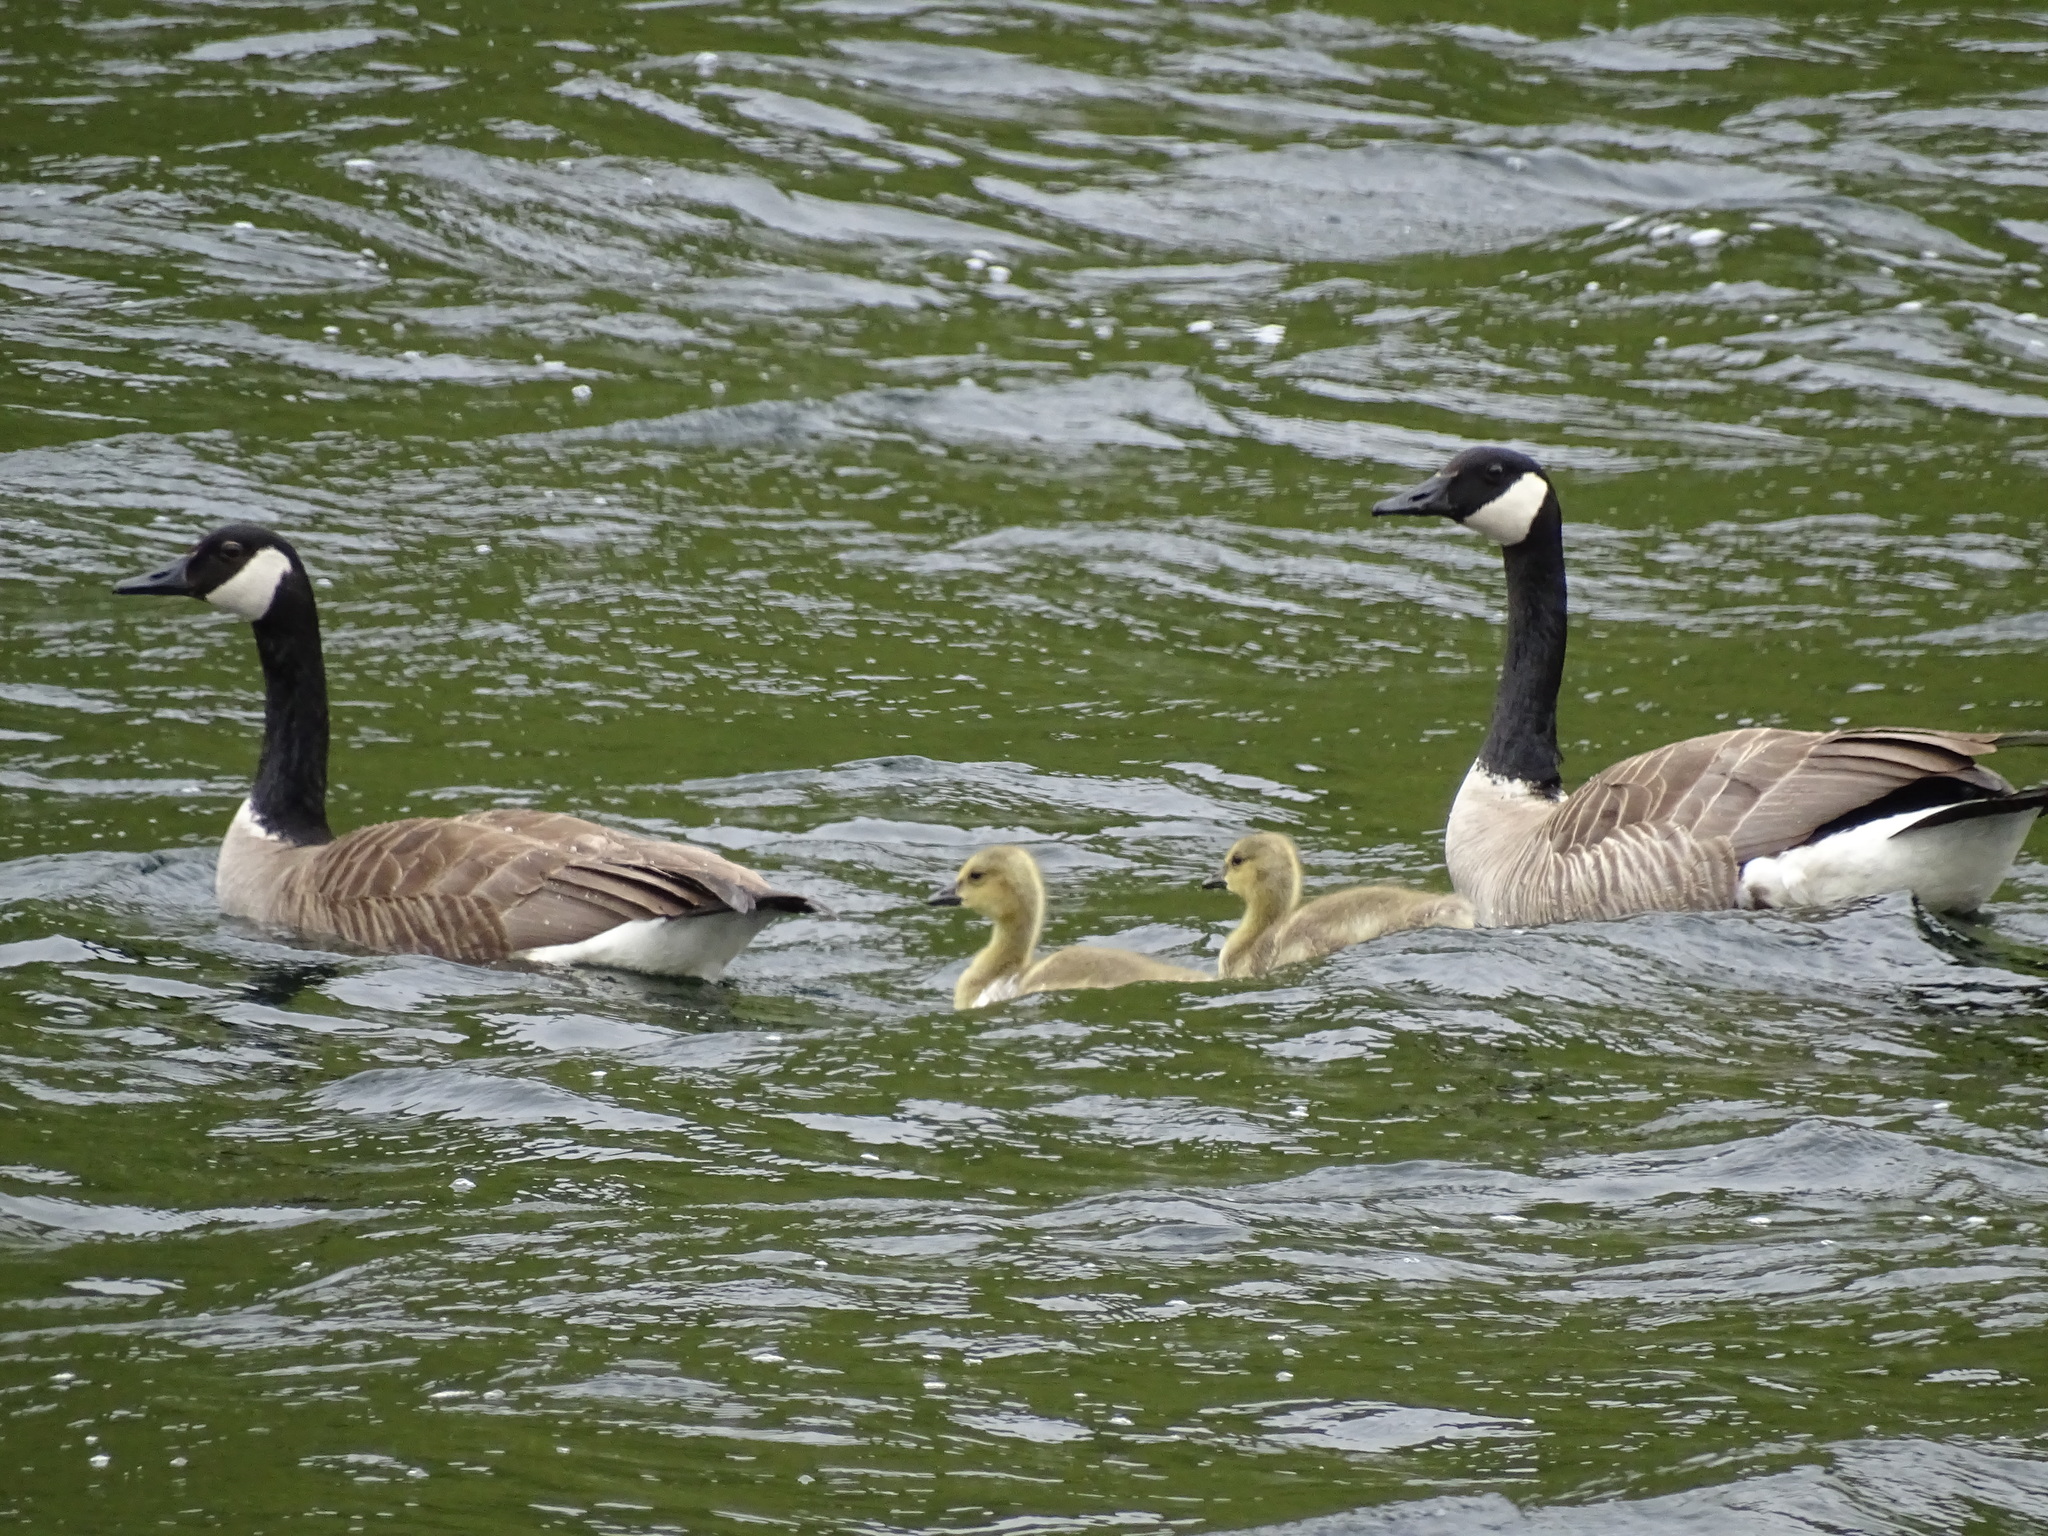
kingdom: Animalia
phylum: Chordata
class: Aves
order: Anseriformes
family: Anatidae
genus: Branta
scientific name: Branta canadensis
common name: Canada goose
